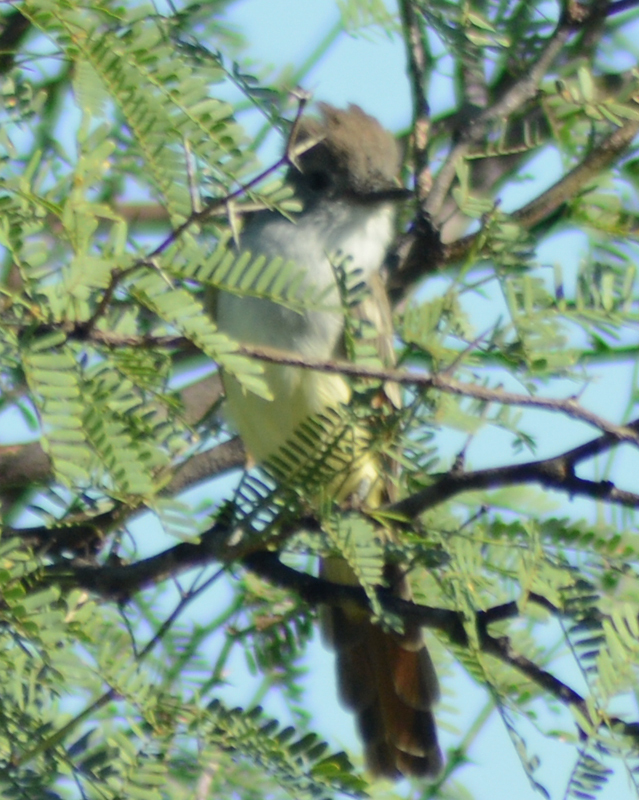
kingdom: Animalia
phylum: Chordata
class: Aves
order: Passeriformes
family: Tyrannidae
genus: Myiarchus
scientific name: Myiarchus cinerascens
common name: Ash-throated flycatcher
